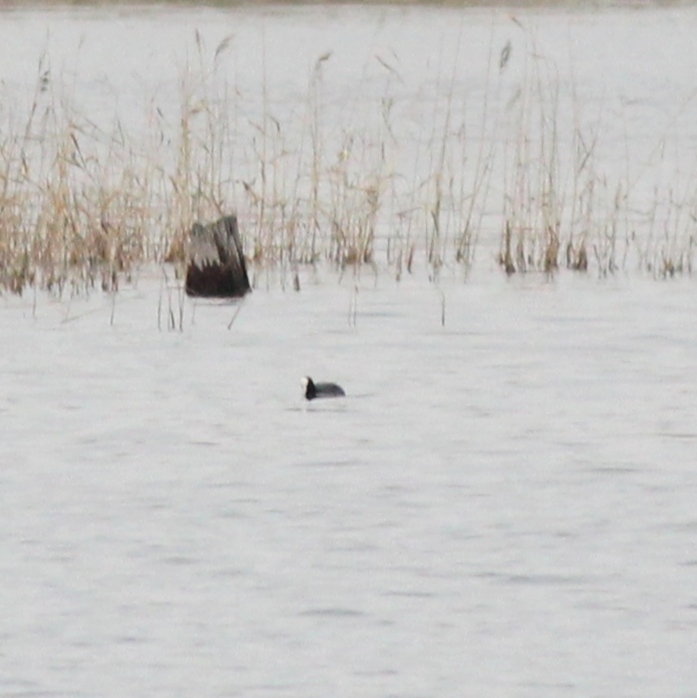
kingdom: Animalia
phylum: Chordata
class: Aves
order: Gruiformes
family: Rallidae
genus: Fulica
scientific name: Fulica atra
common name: Eurasian coot
